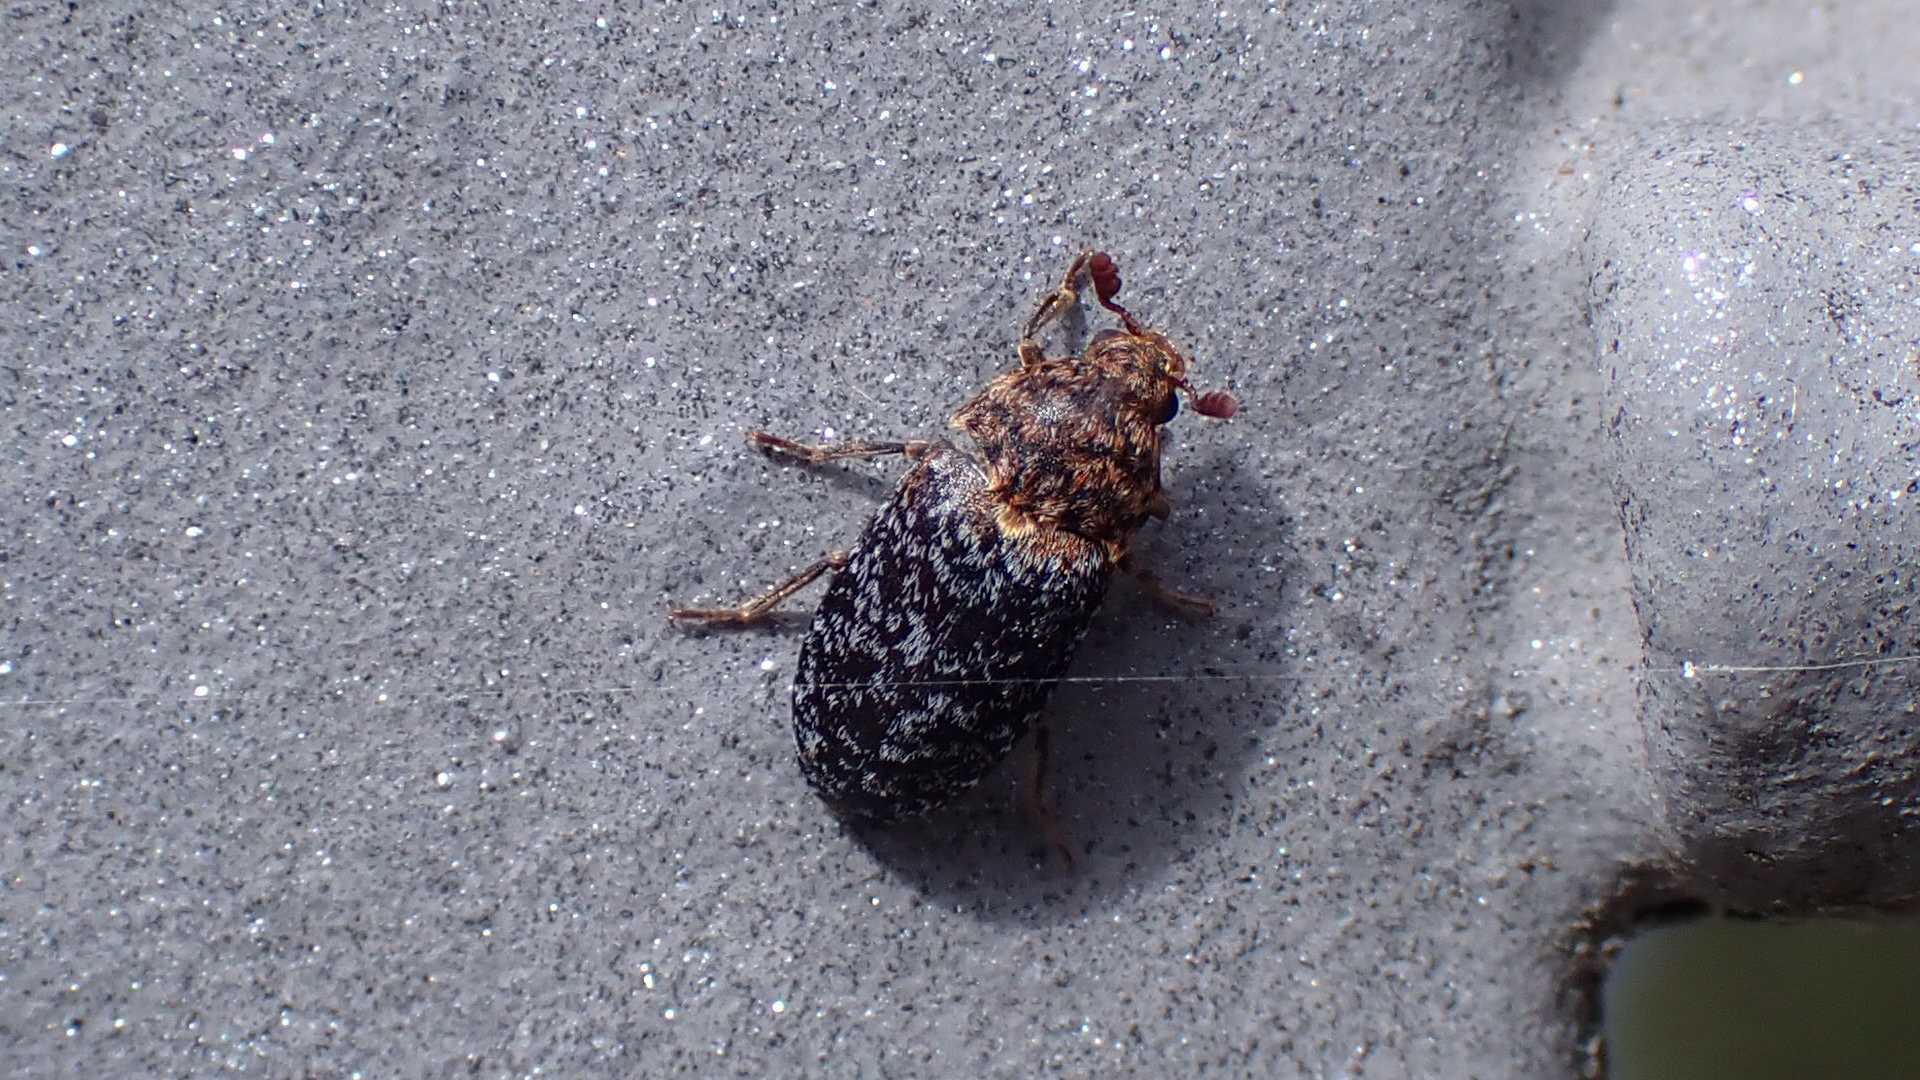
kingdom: Animalia
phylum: Arthropoda
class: Insecta
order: Coleoptera
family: Dermestidae
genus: Dermestes
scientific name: Dermestes undulatus
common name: Wavy carpet beetle
